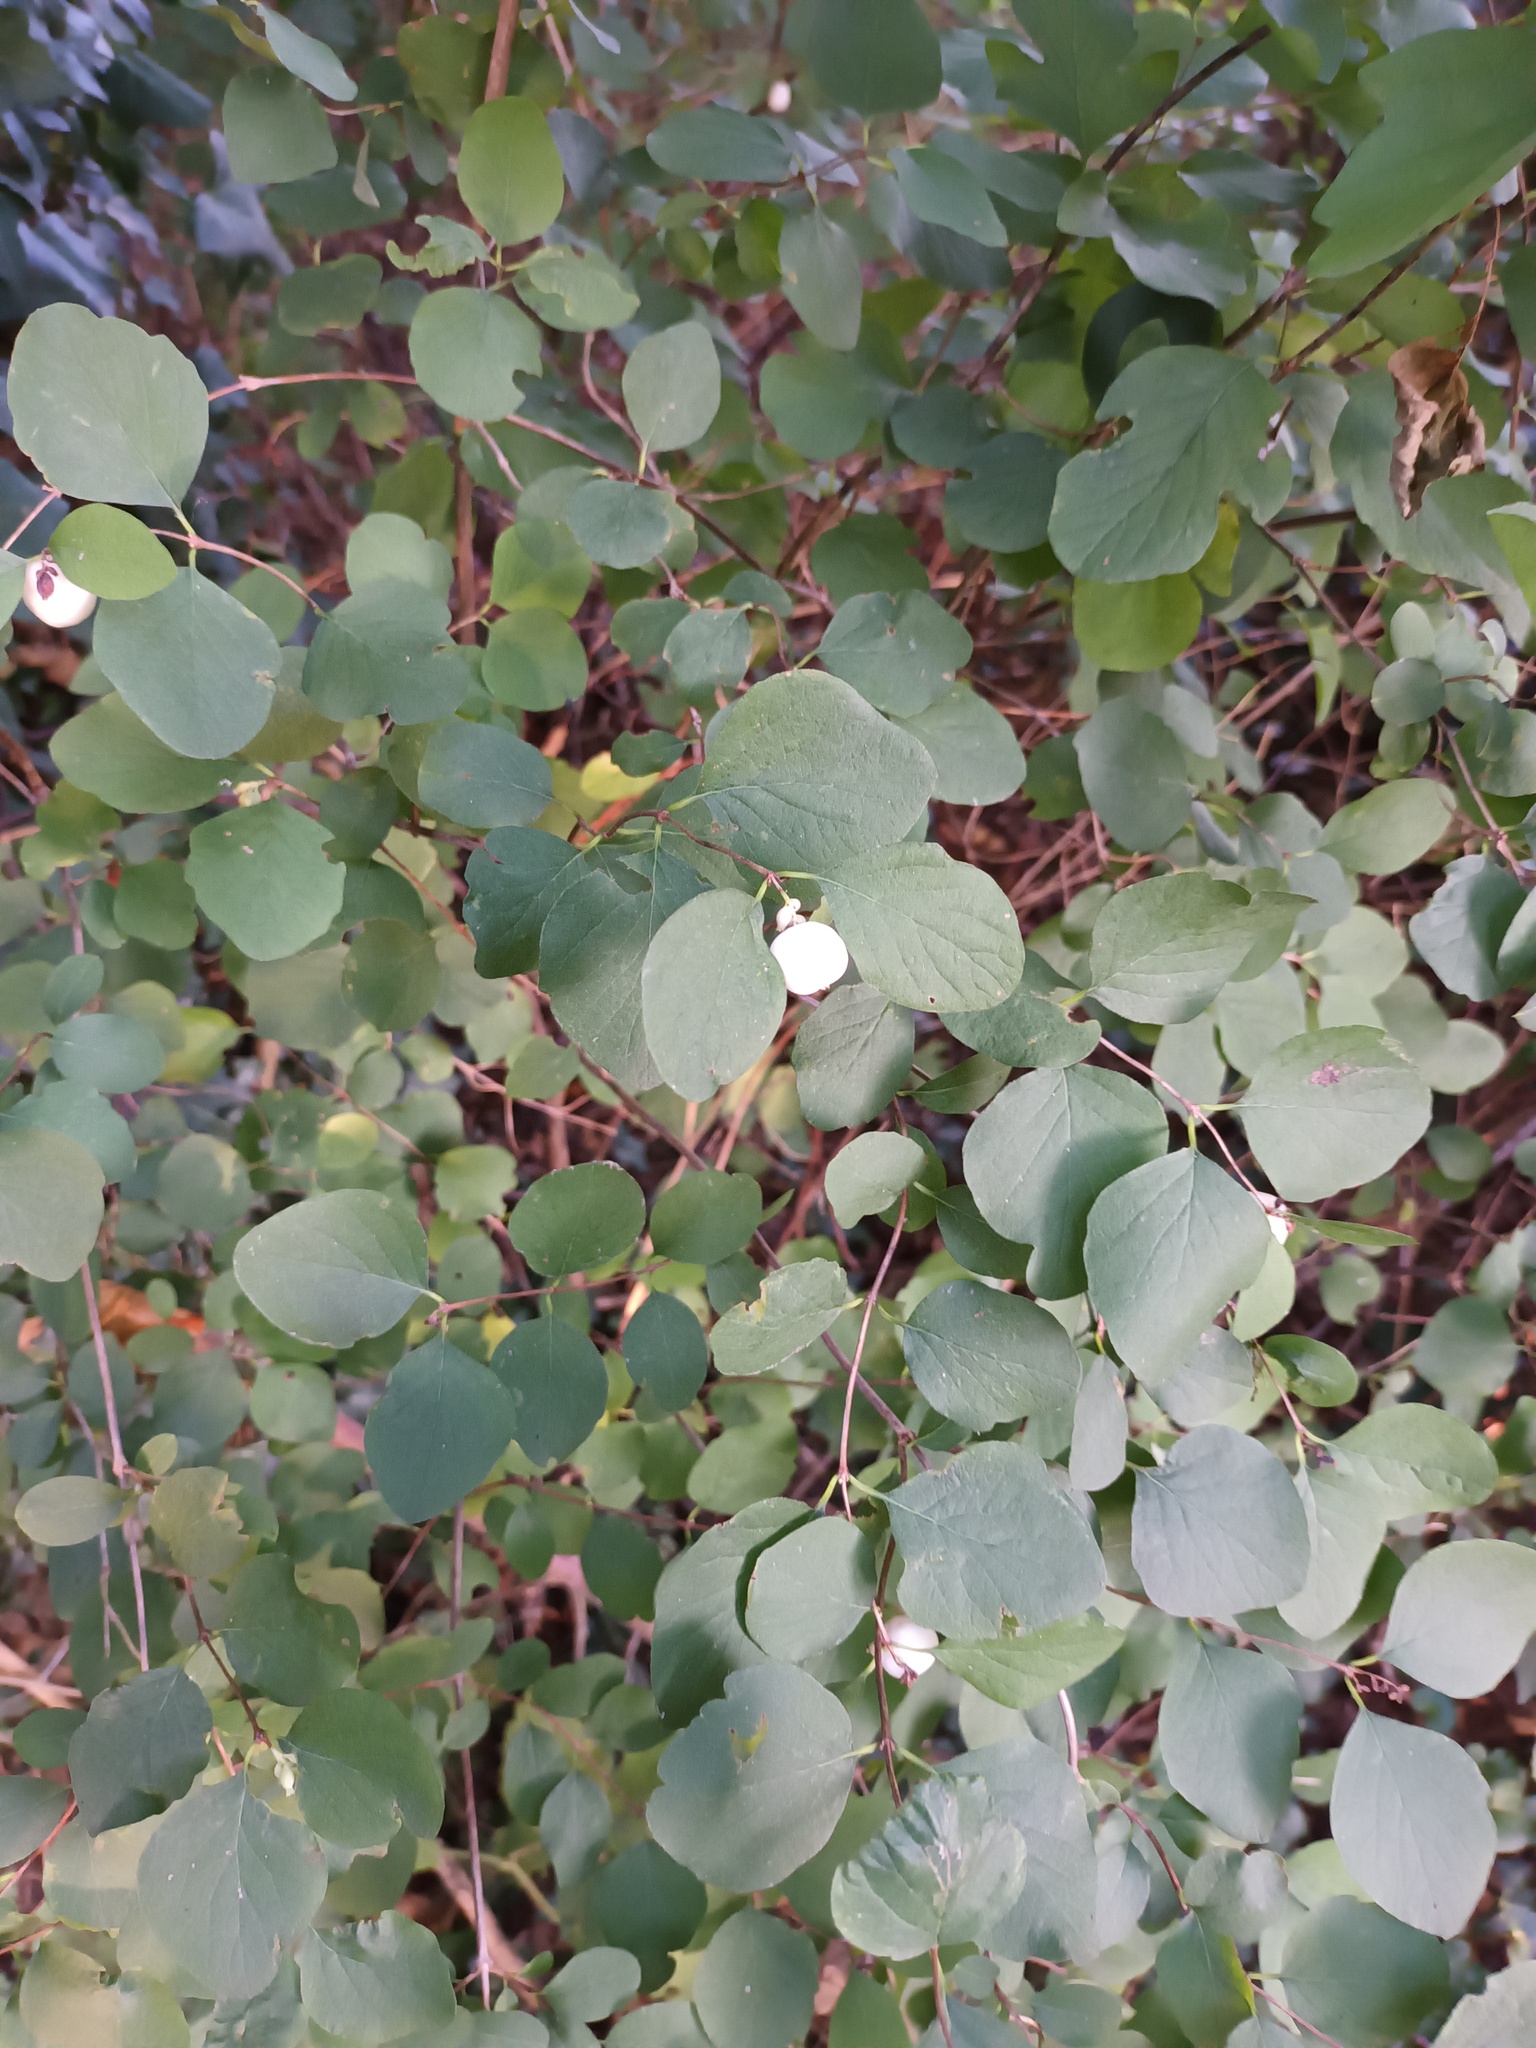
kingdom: Plantae
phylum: Tracheophyta
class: Magnoliopsida
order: Dipsacales
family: Caprifoliaceae
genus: Symphoricarpos
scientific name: Symphoricarpos albus
